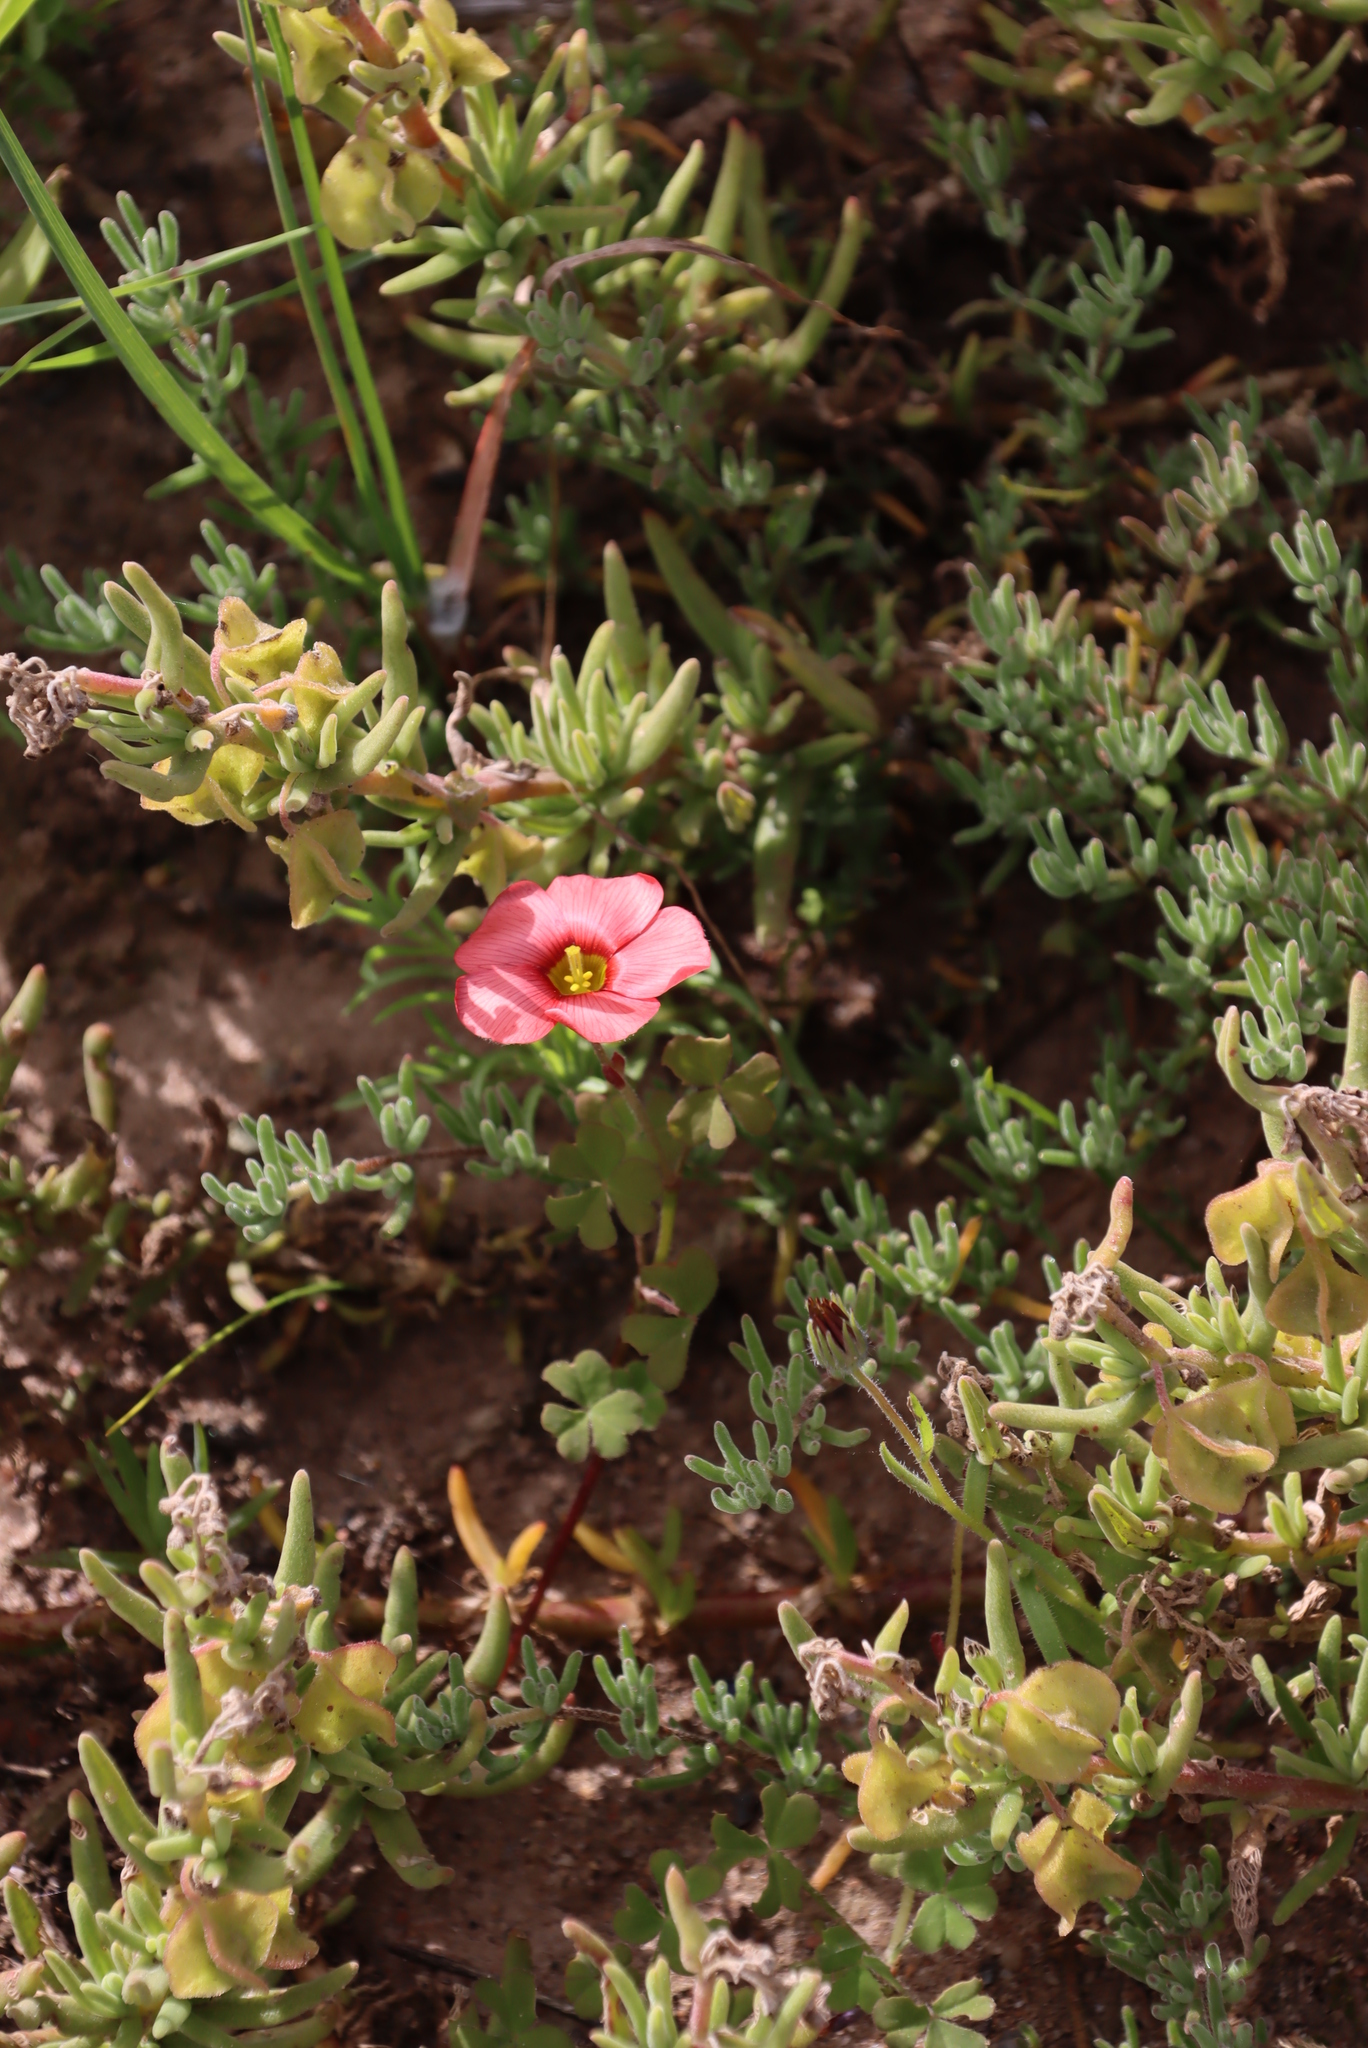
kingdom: Plantae
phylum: Tracheophyta
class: Magnoliopsida
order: Oxalidales
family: Oxalidaceae
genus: Oxalis
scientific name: Oxalis obtusa
